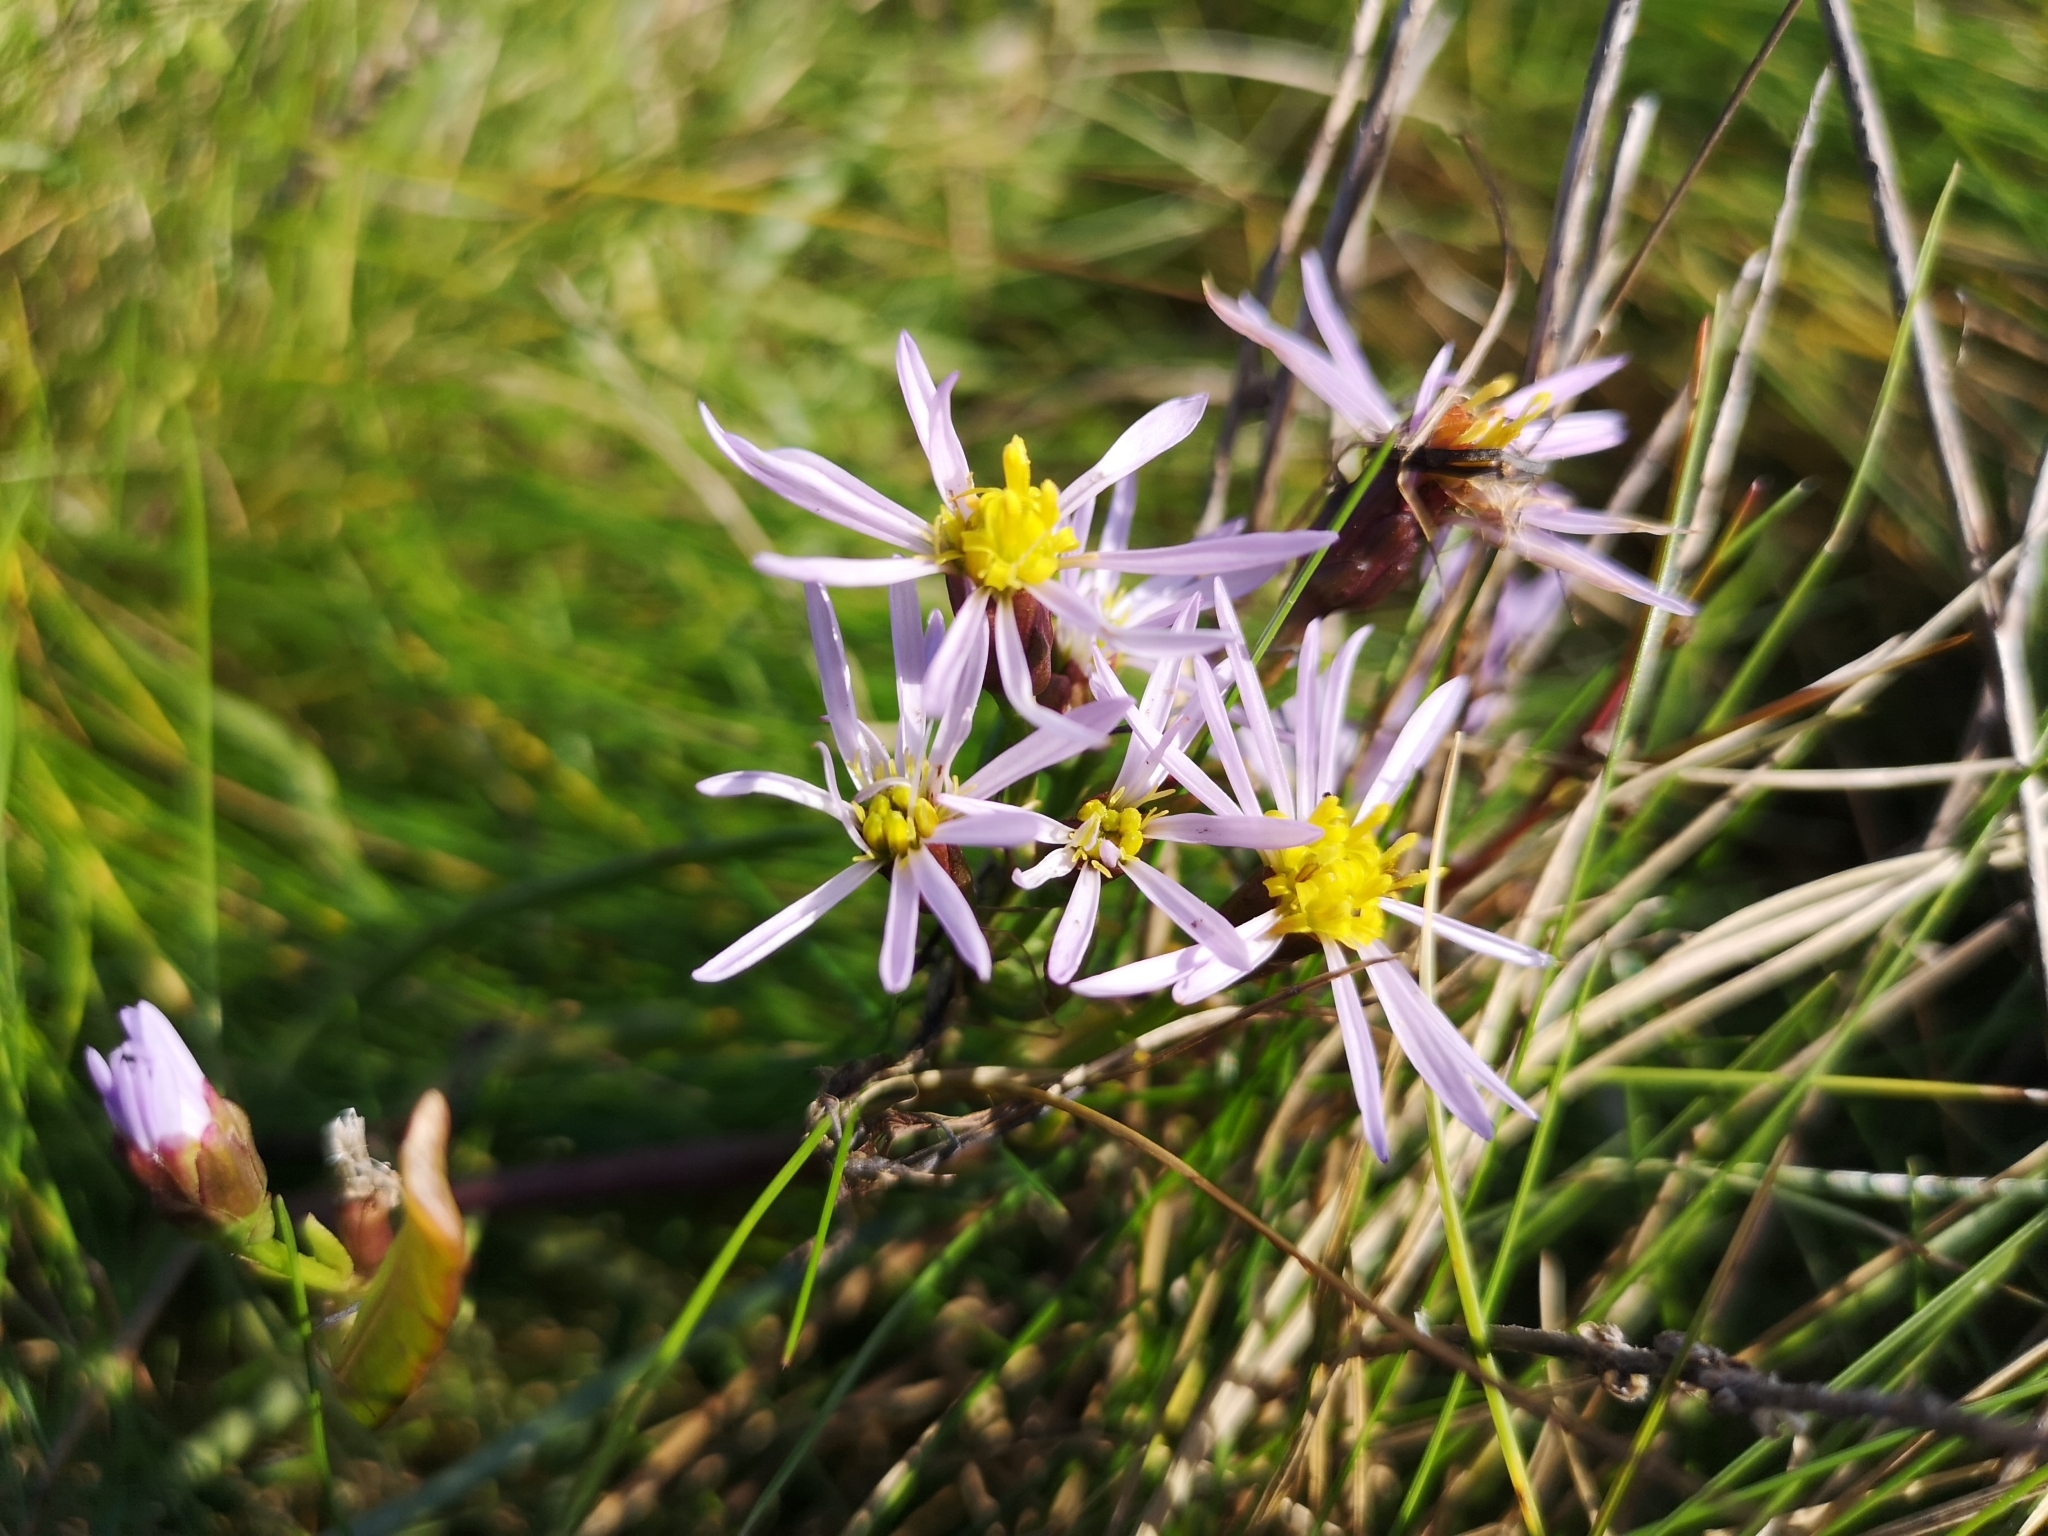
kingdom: Plantae
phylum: Tracheophyta
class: Magnoliopsida
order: Asterales
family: Asteraceae
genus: Tripolium
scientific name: Tripolium pannonicum
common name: Sea aster
